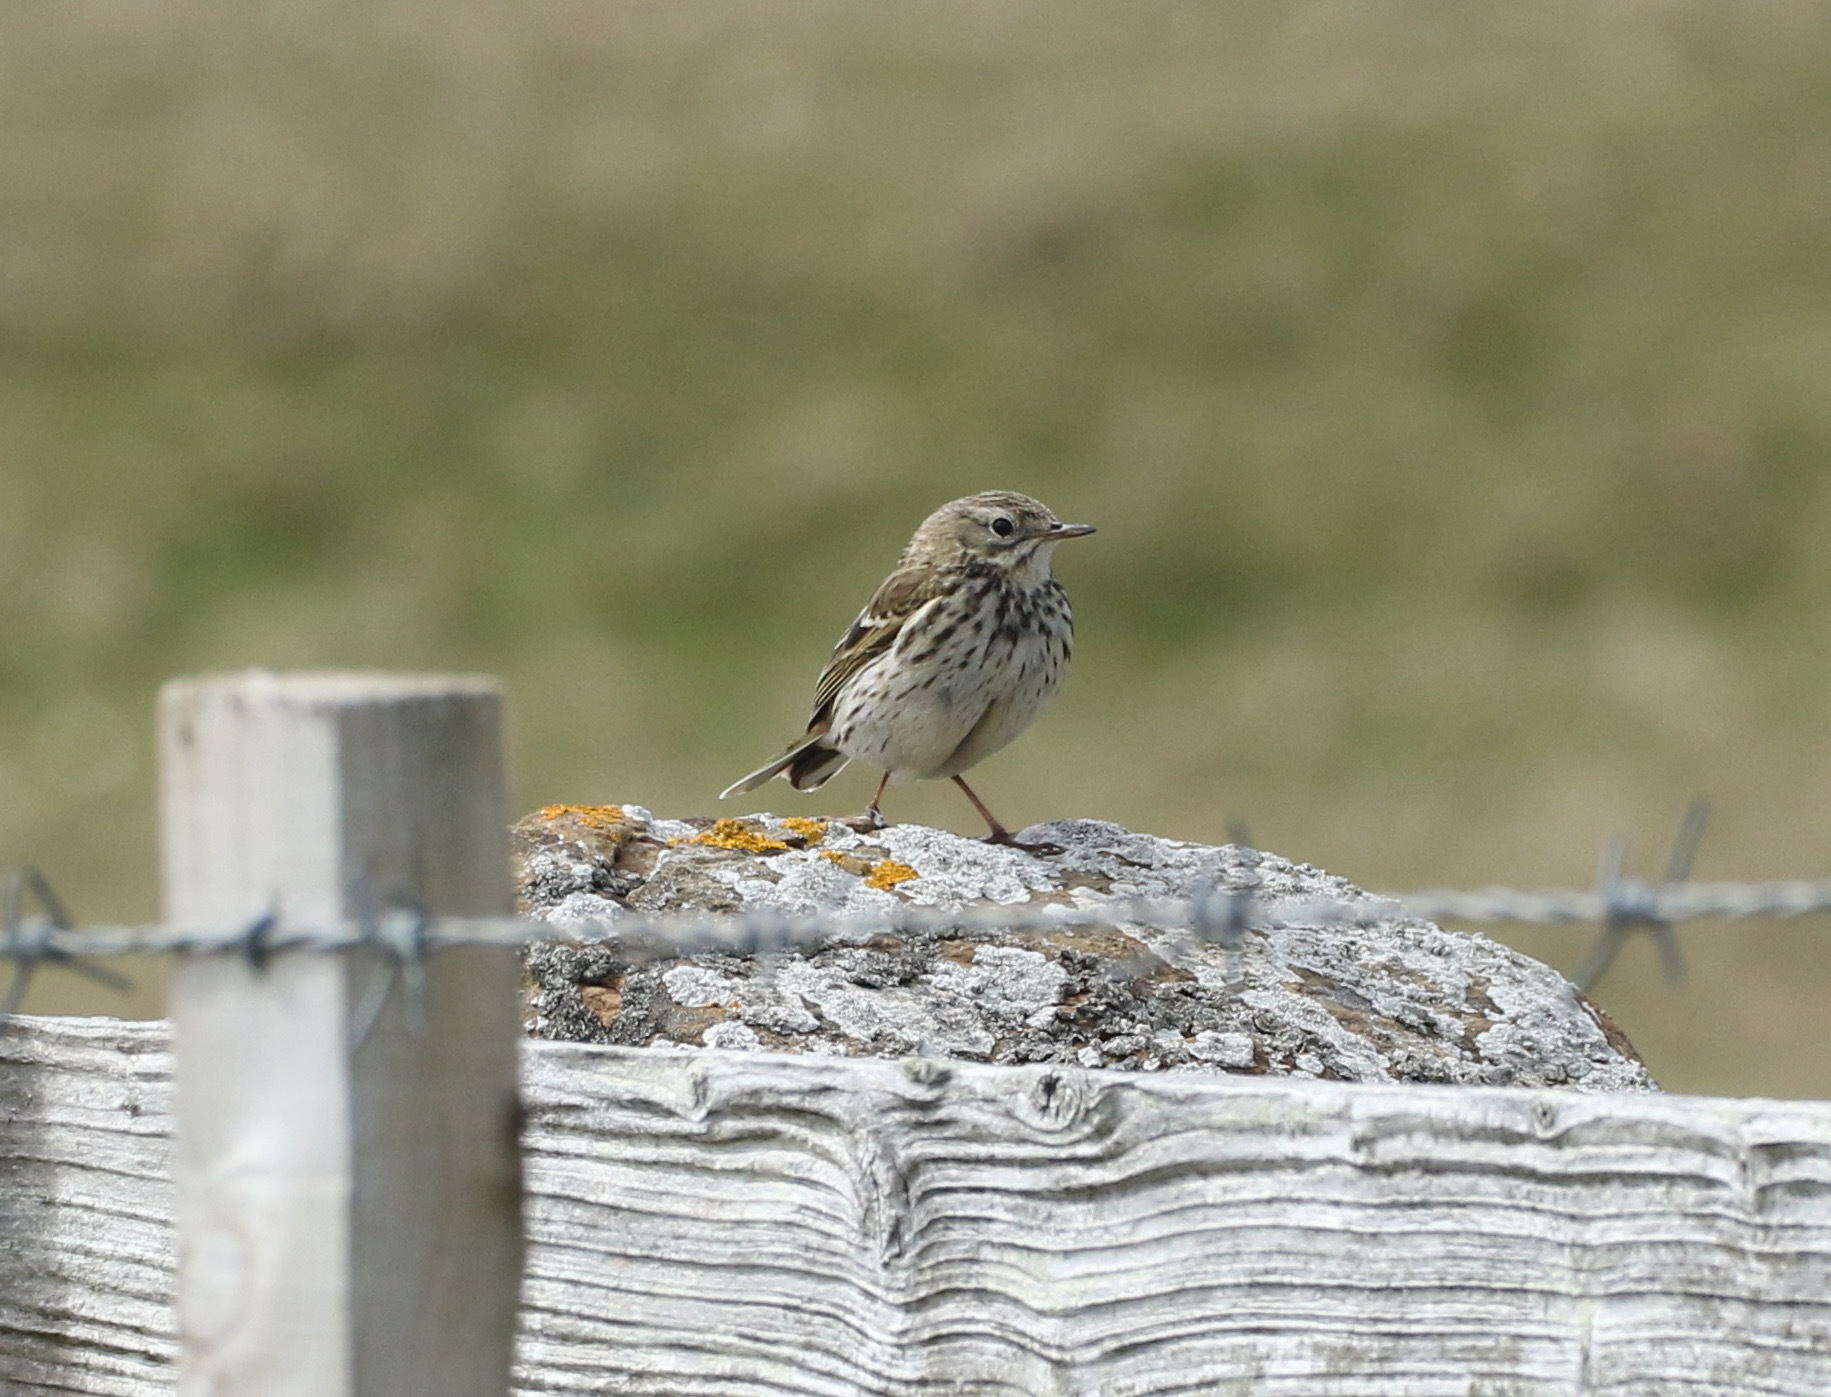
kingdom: Animalia
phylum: Chordata
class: Aves
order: Passeriformes
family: Motacillidae
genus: Anthus
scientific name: Anthus pratensis
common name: Meadow pipit
